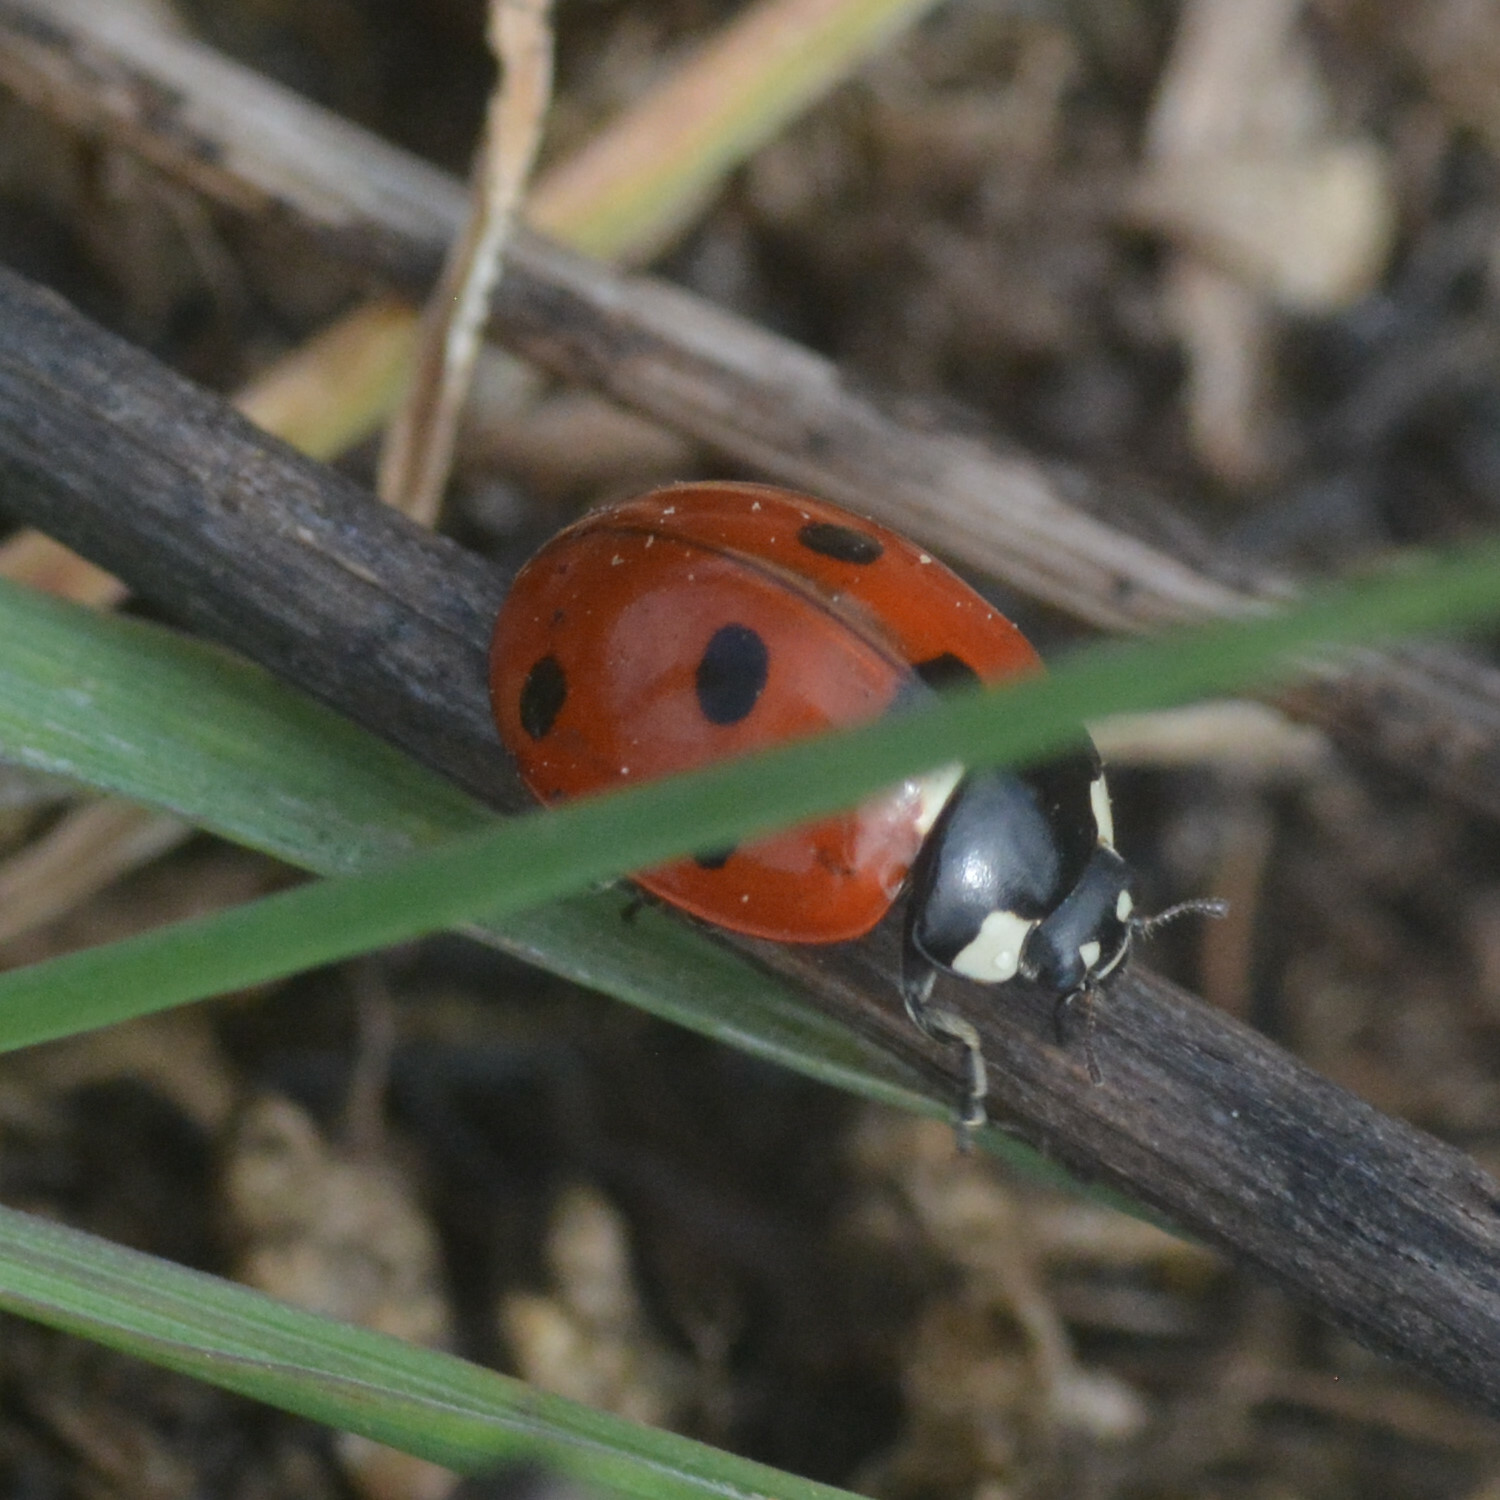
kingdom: Animalia
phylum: Arthropoda
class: Insecta
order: Coleoptera
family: Coccinellidae
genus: Coccinella
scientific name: Coccinella septempunctata
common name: Sevenspotted lady beetle
